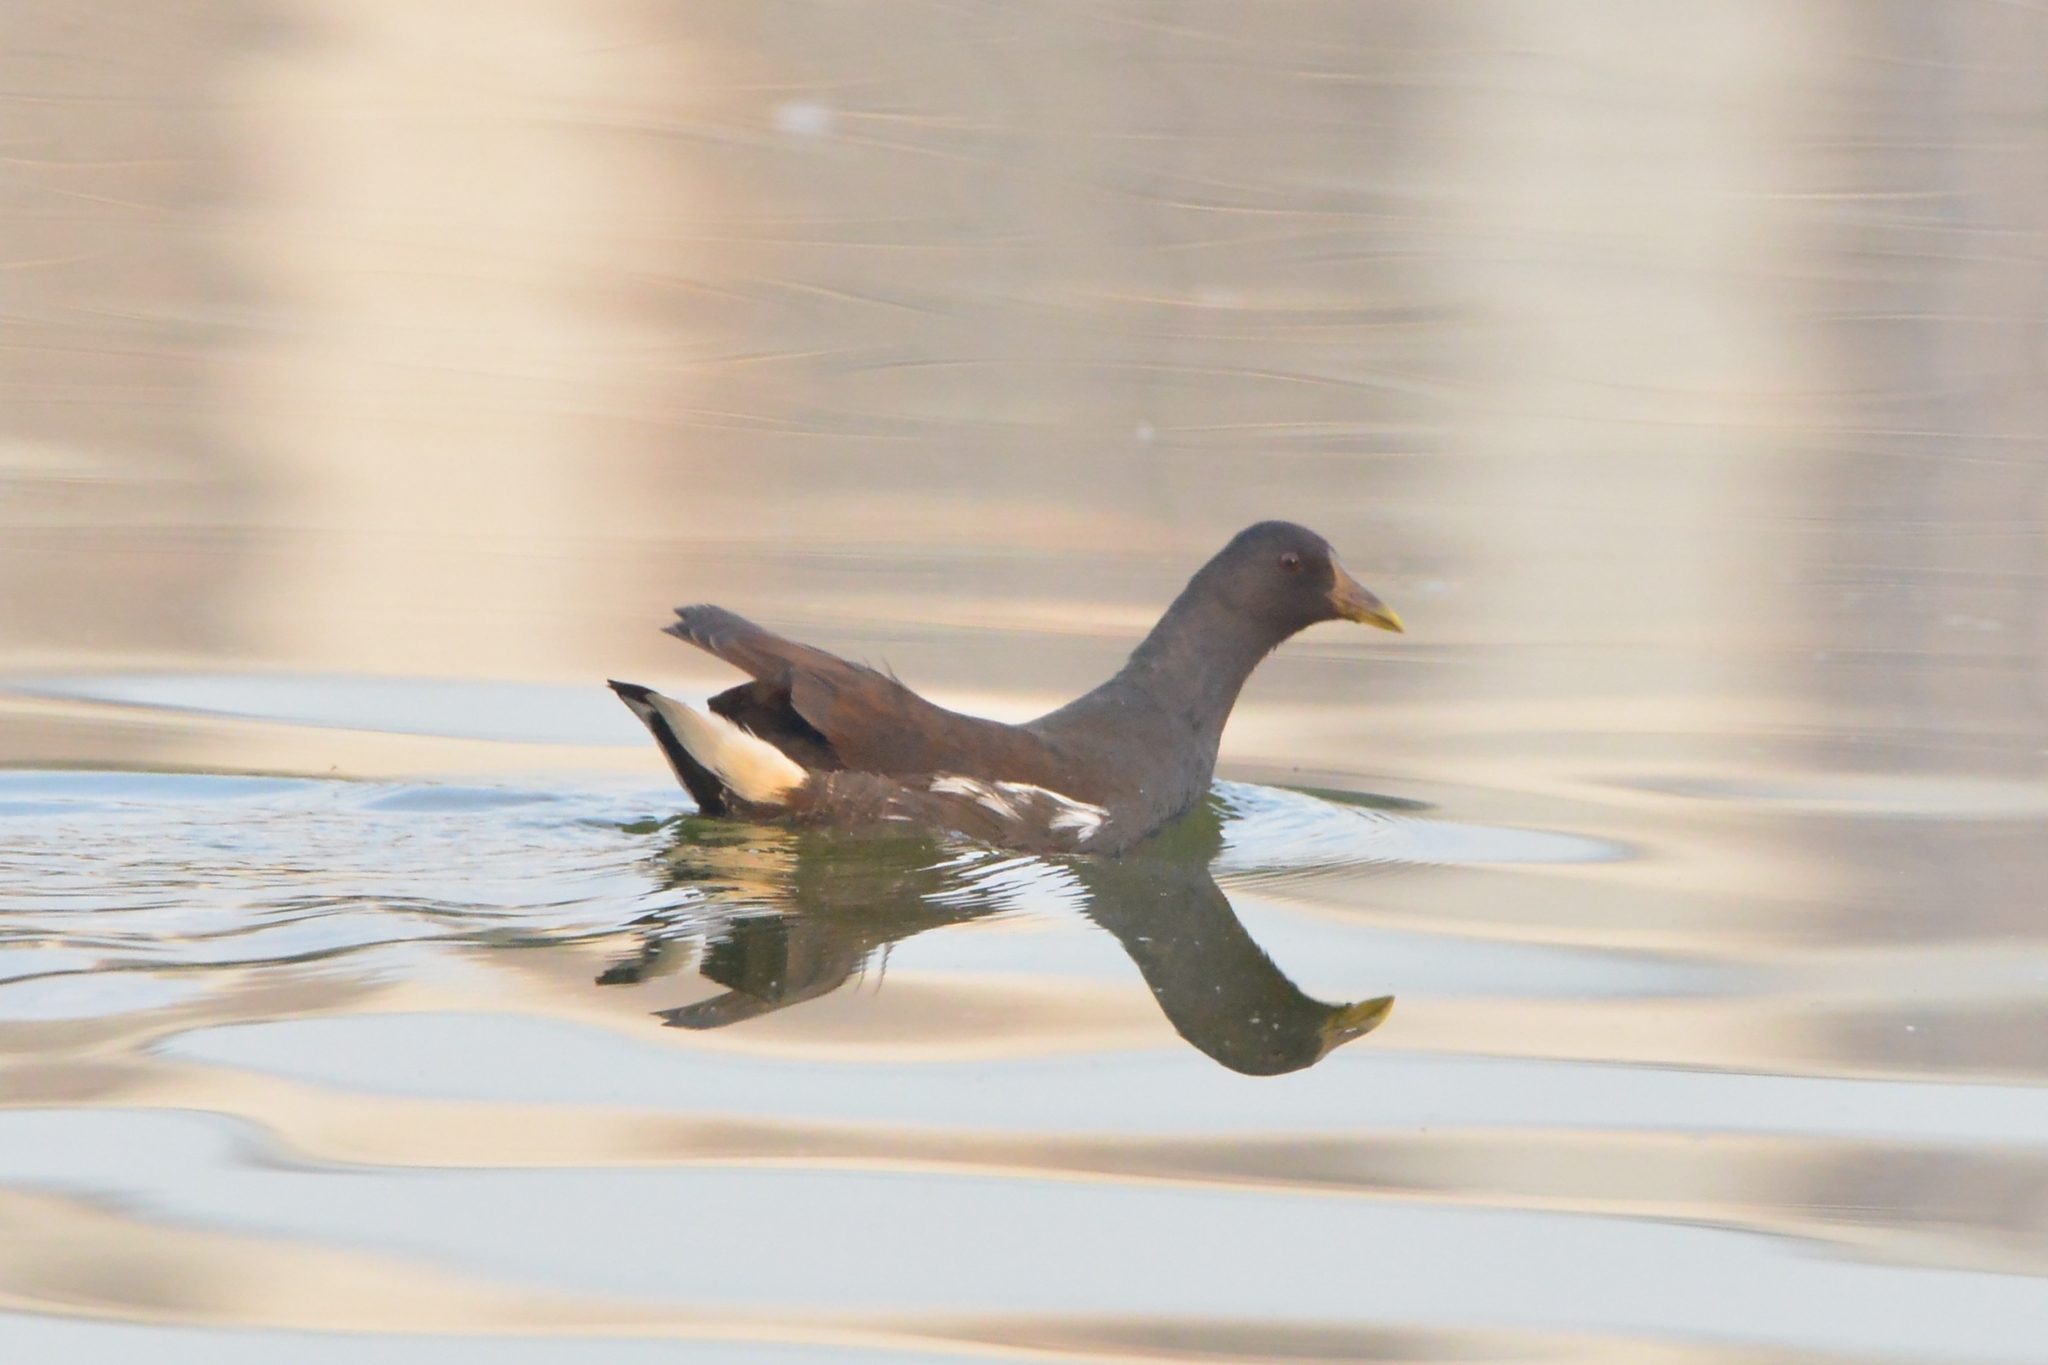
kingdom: Animalia
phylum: Chordata
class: Aves
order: Gruiformes
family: Rallidae
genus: Gallinula
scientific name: Gallinula chloropus
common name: Common moorhen
